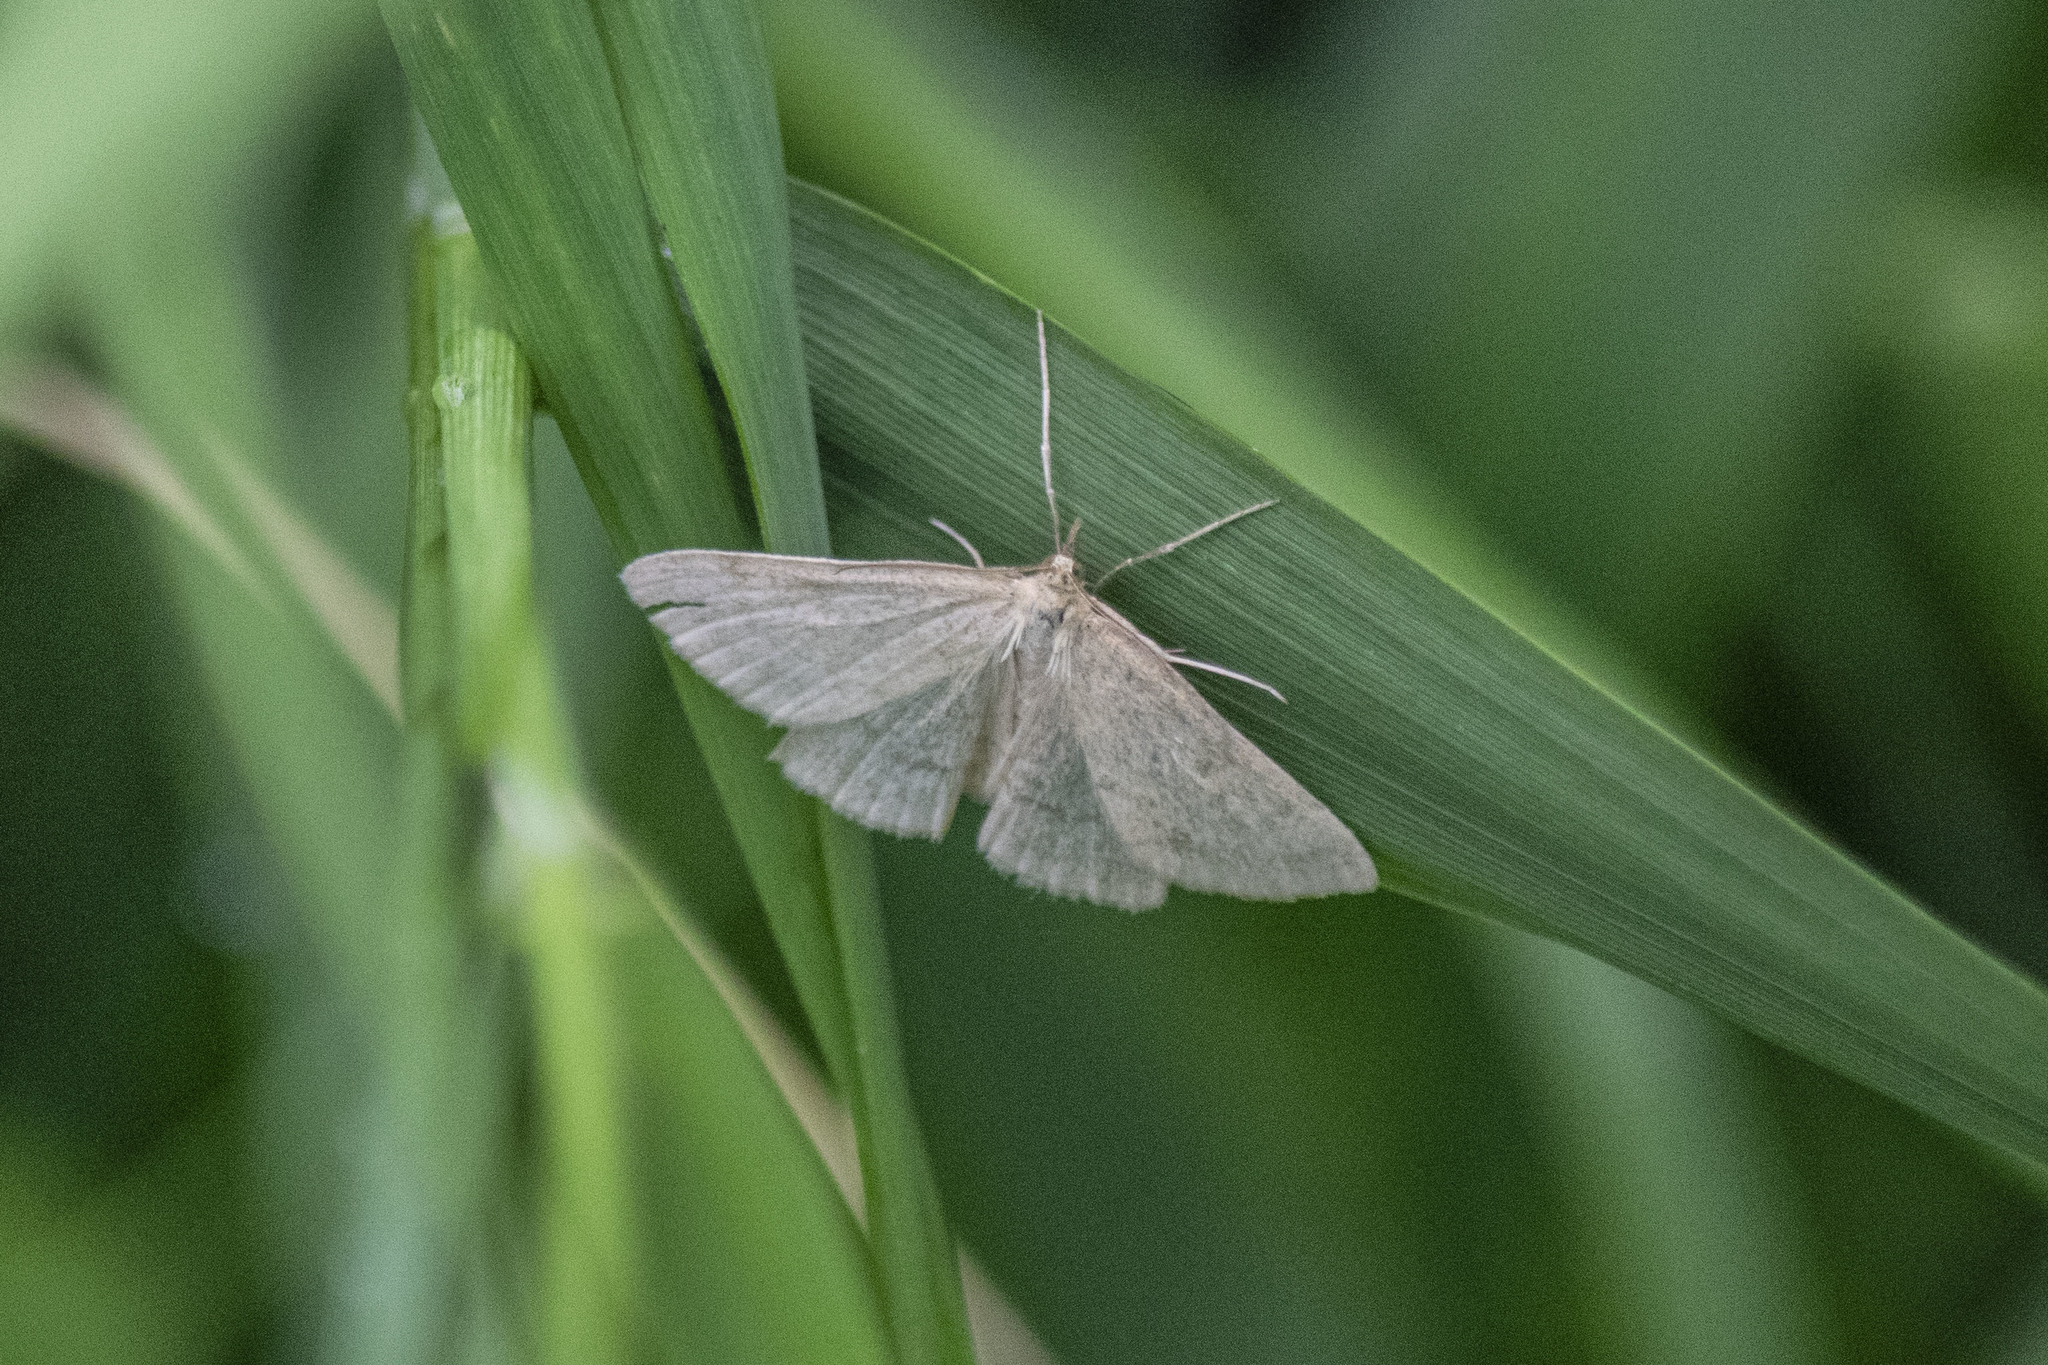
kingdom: Animalia
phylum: Arthropoda
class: Insecta
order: Lepidoptera
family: Crambidae
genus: Psammotis
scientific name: Psammotis viminalis
